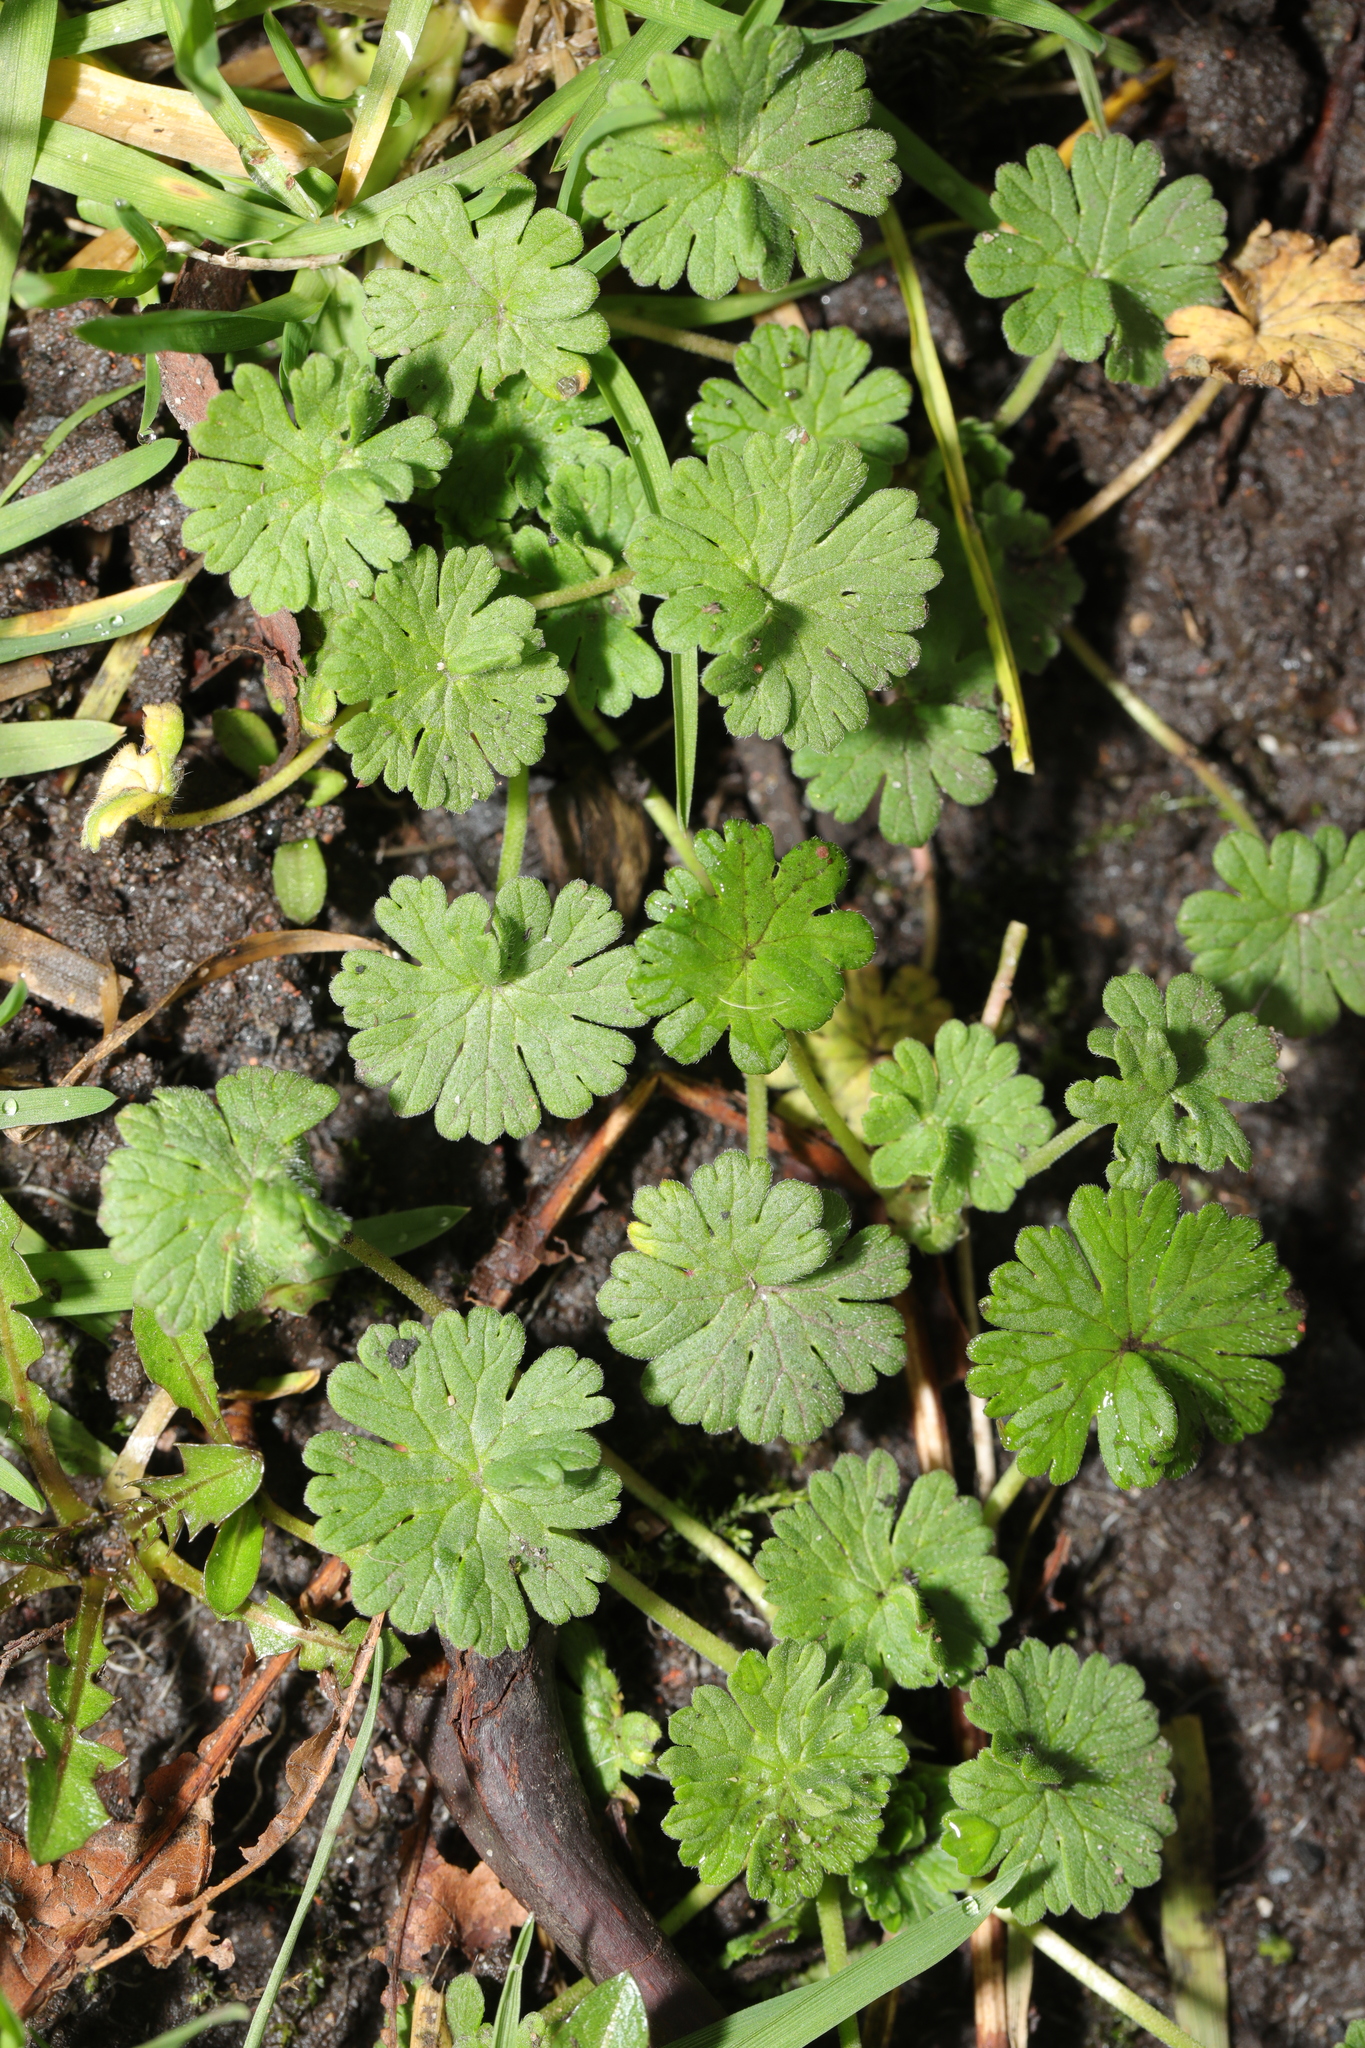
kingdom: Plantae
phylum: Tracheophyta
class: Magnoliopsida
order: Geraniales
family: Geraniaceae
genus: Geranium
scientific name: Geranium molle
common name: Dove's-foot crane's-bill
